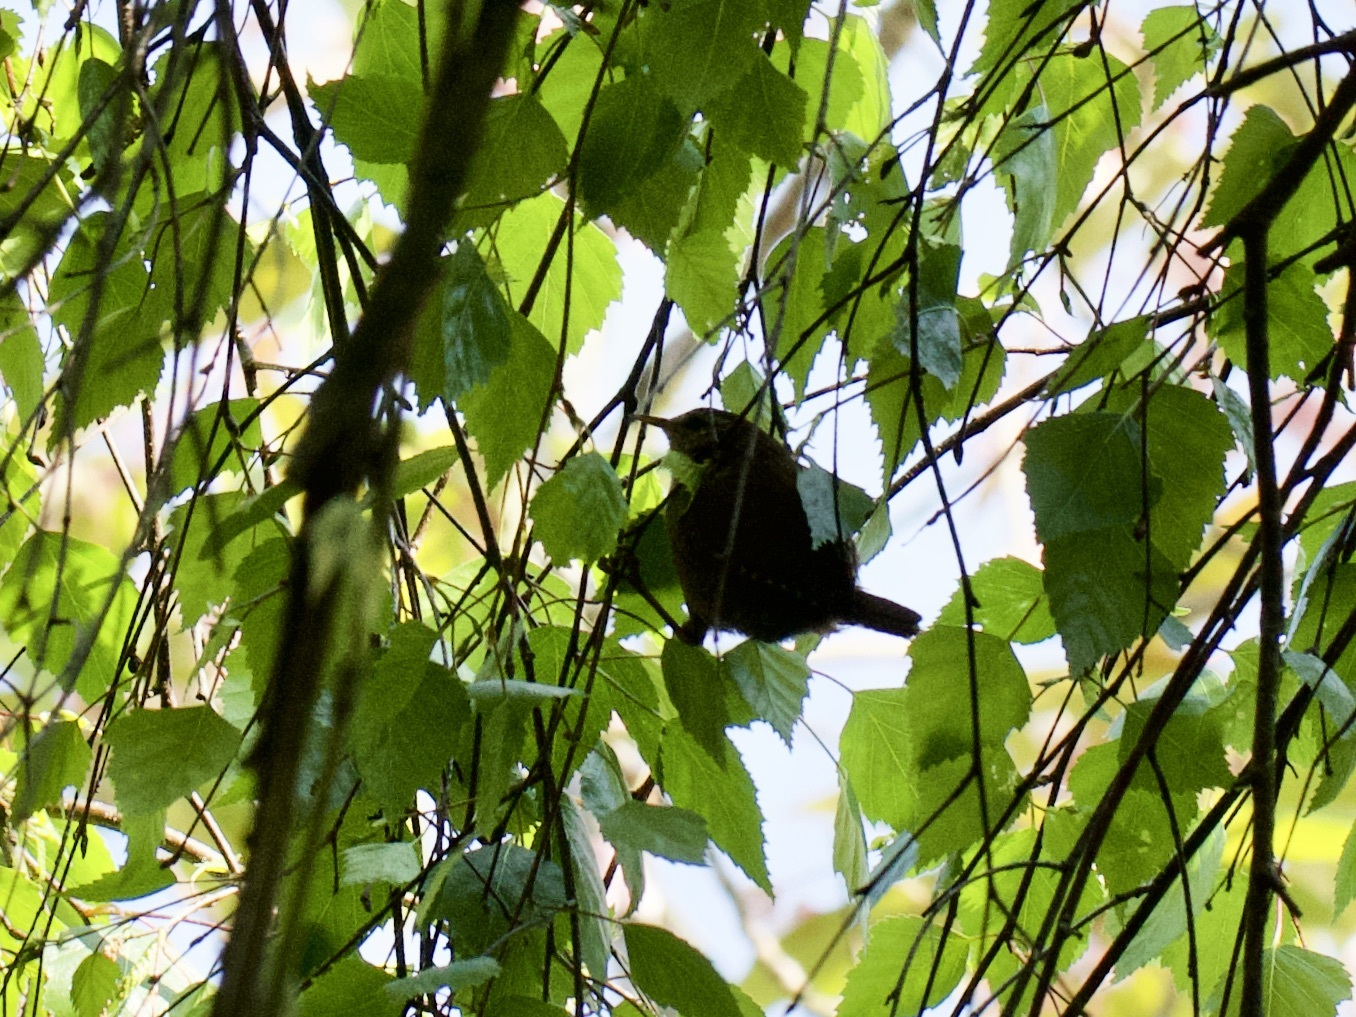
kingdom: Animalia
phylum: Chordata
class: Aves
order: Passeriformes
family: Troglodytidae
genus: Troglodytes
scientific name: Troglodytes troglodytes
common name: Eurasian wren
